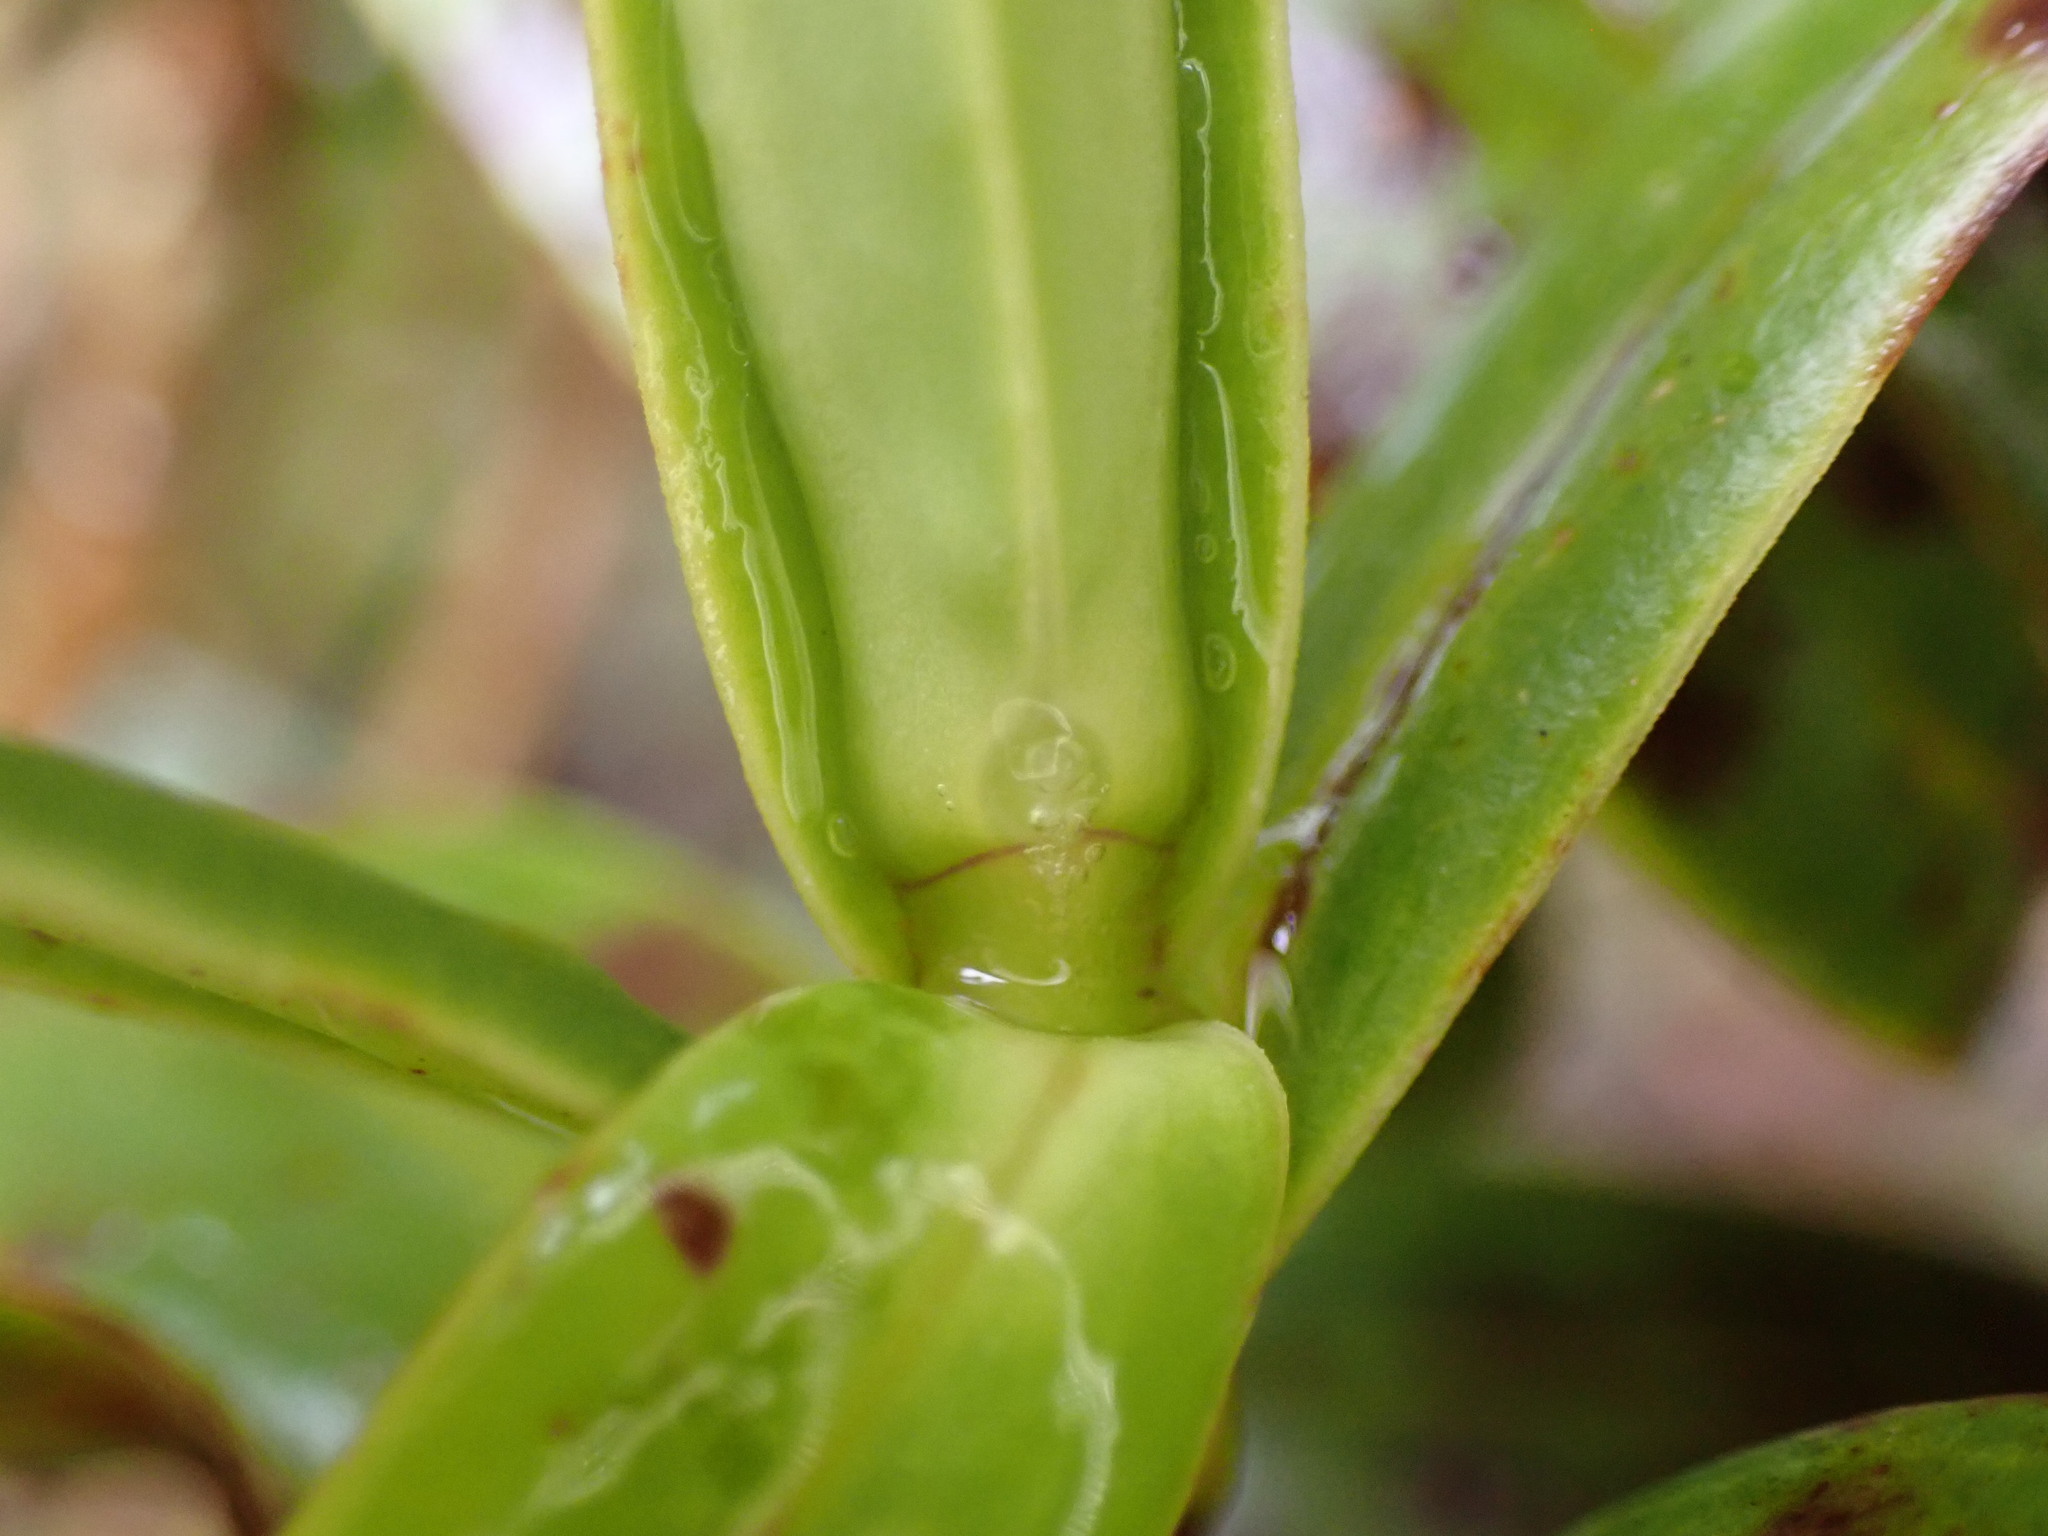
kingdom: Plantae
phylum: Tracheophyta
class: Magnoliopsida
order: Lamiales
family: Plantaginaceae
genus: Veronica
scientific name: Veronica corriganii
